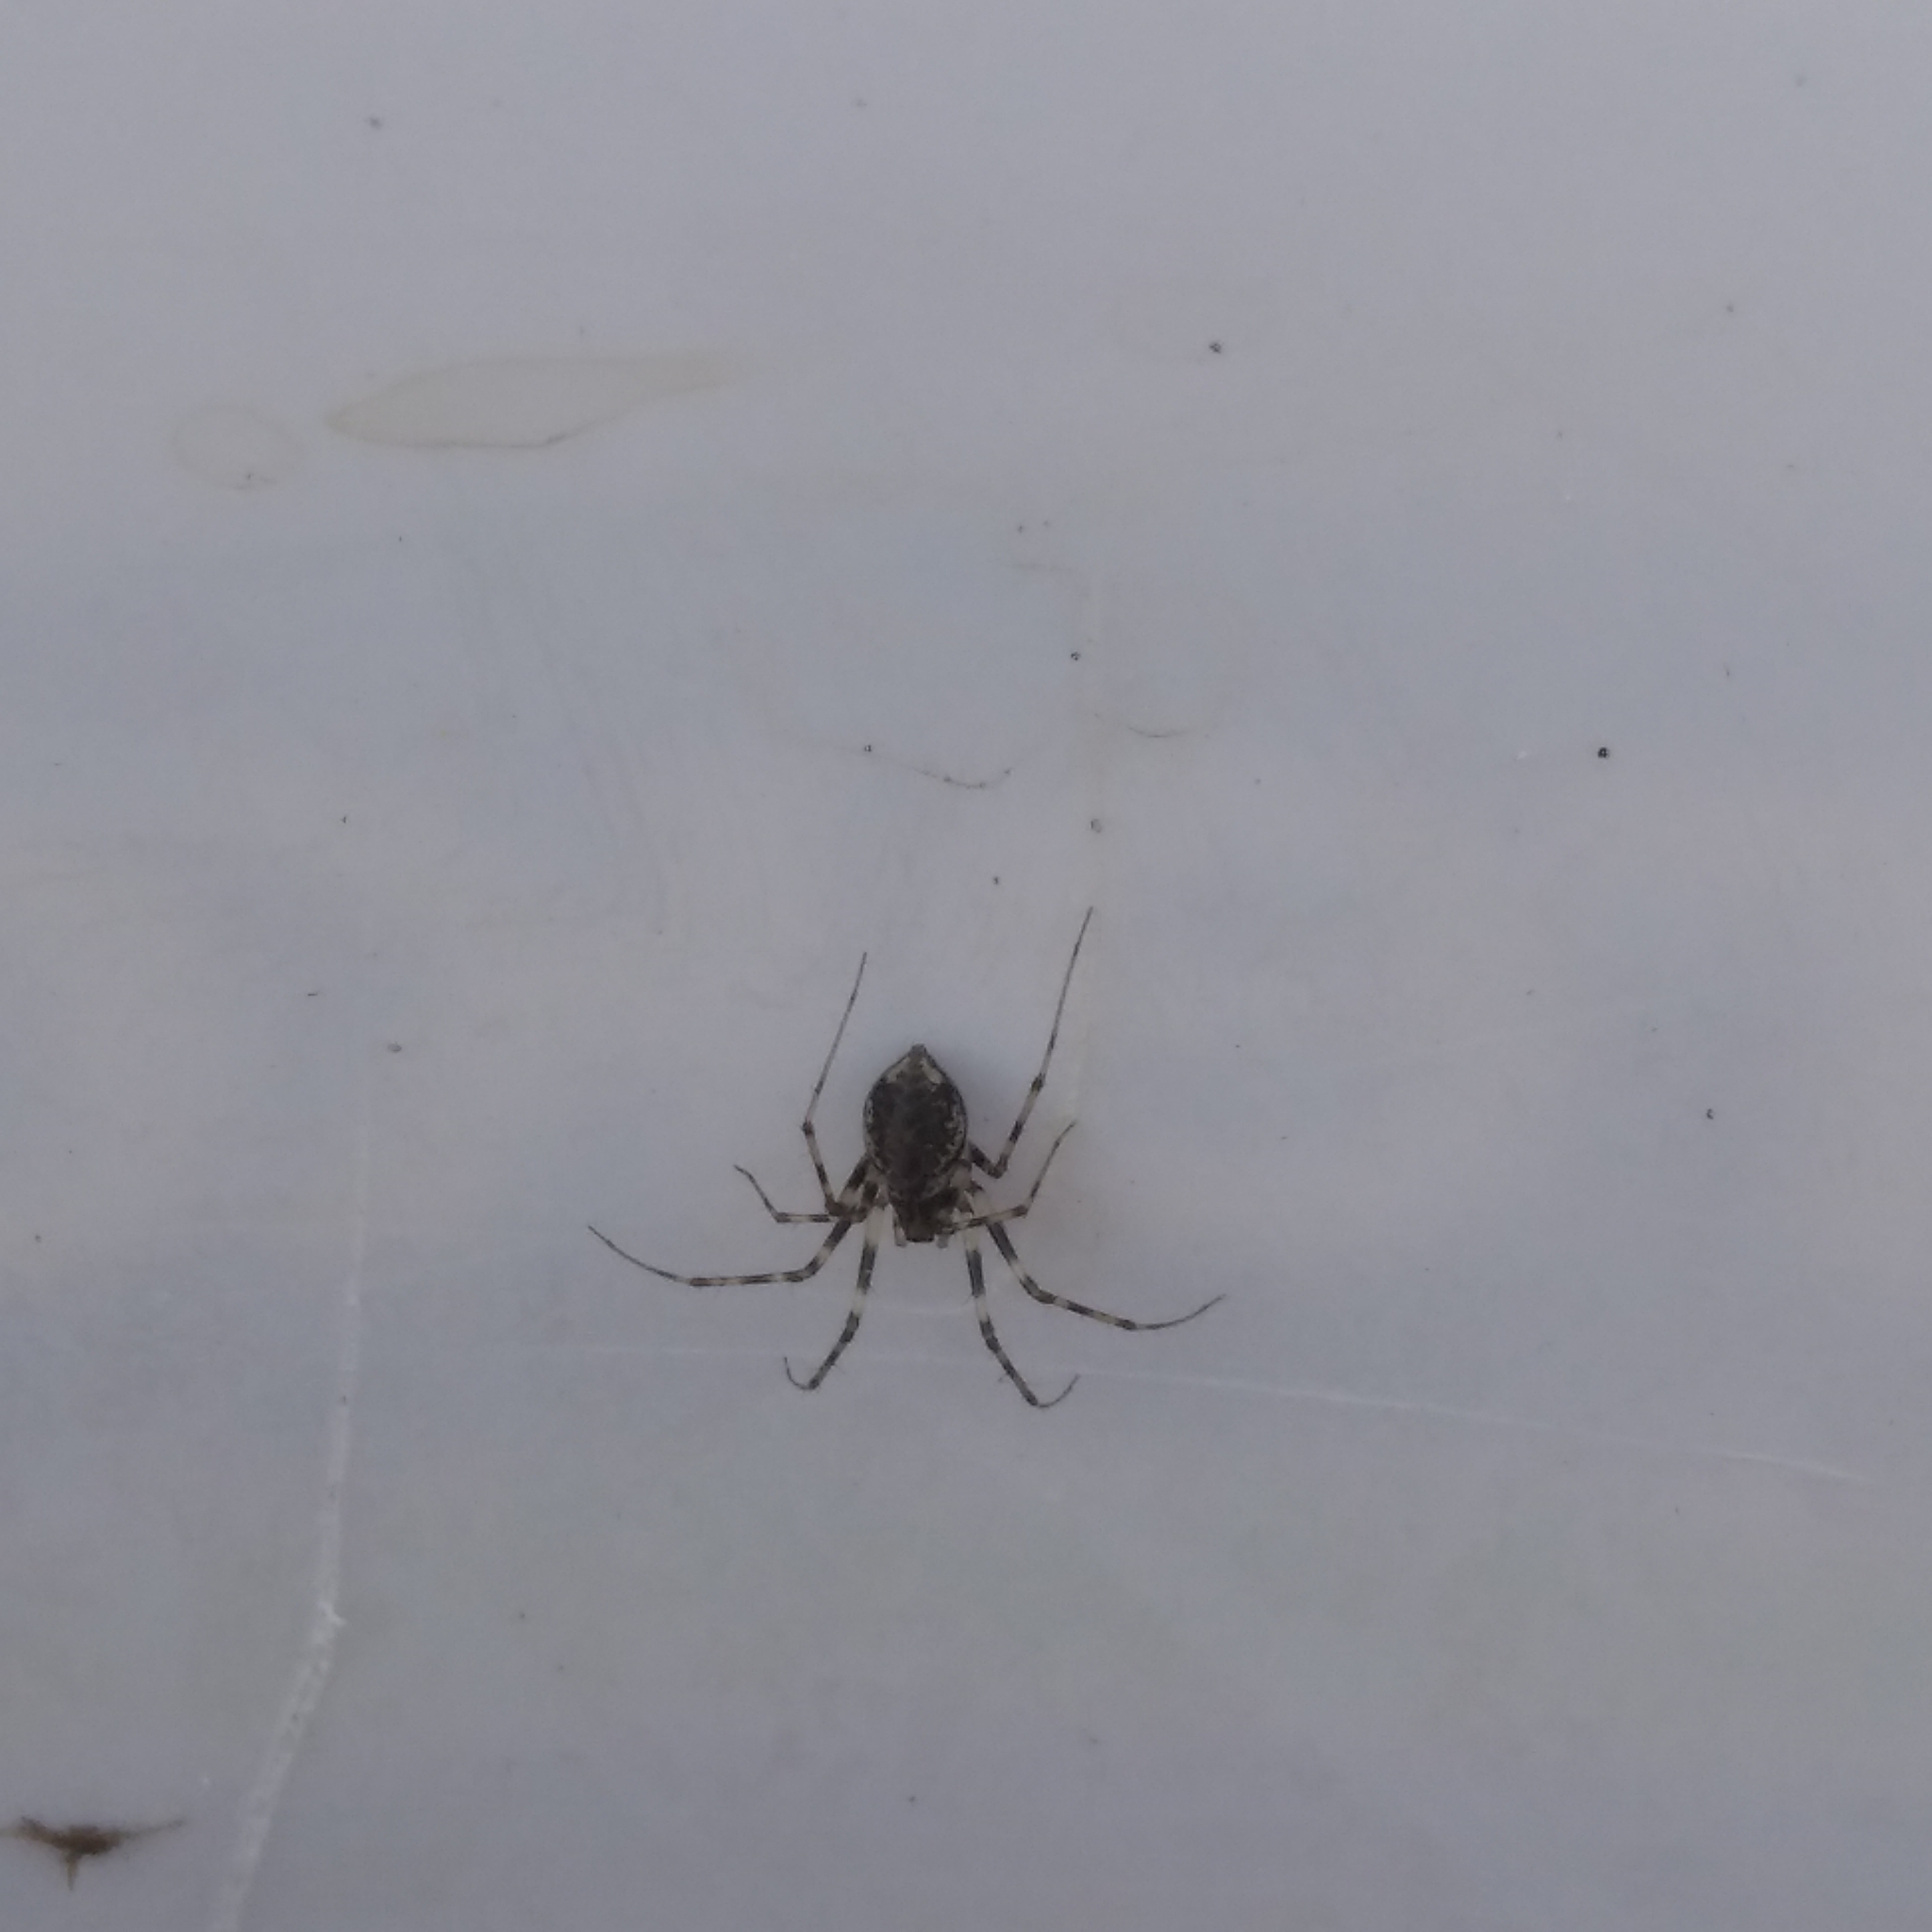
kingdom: Animalia
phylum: Arthropoda
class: Arachnida
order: Araneae
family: Linyphiidae
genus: Drapetisca
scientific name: Drapetisca socialis
